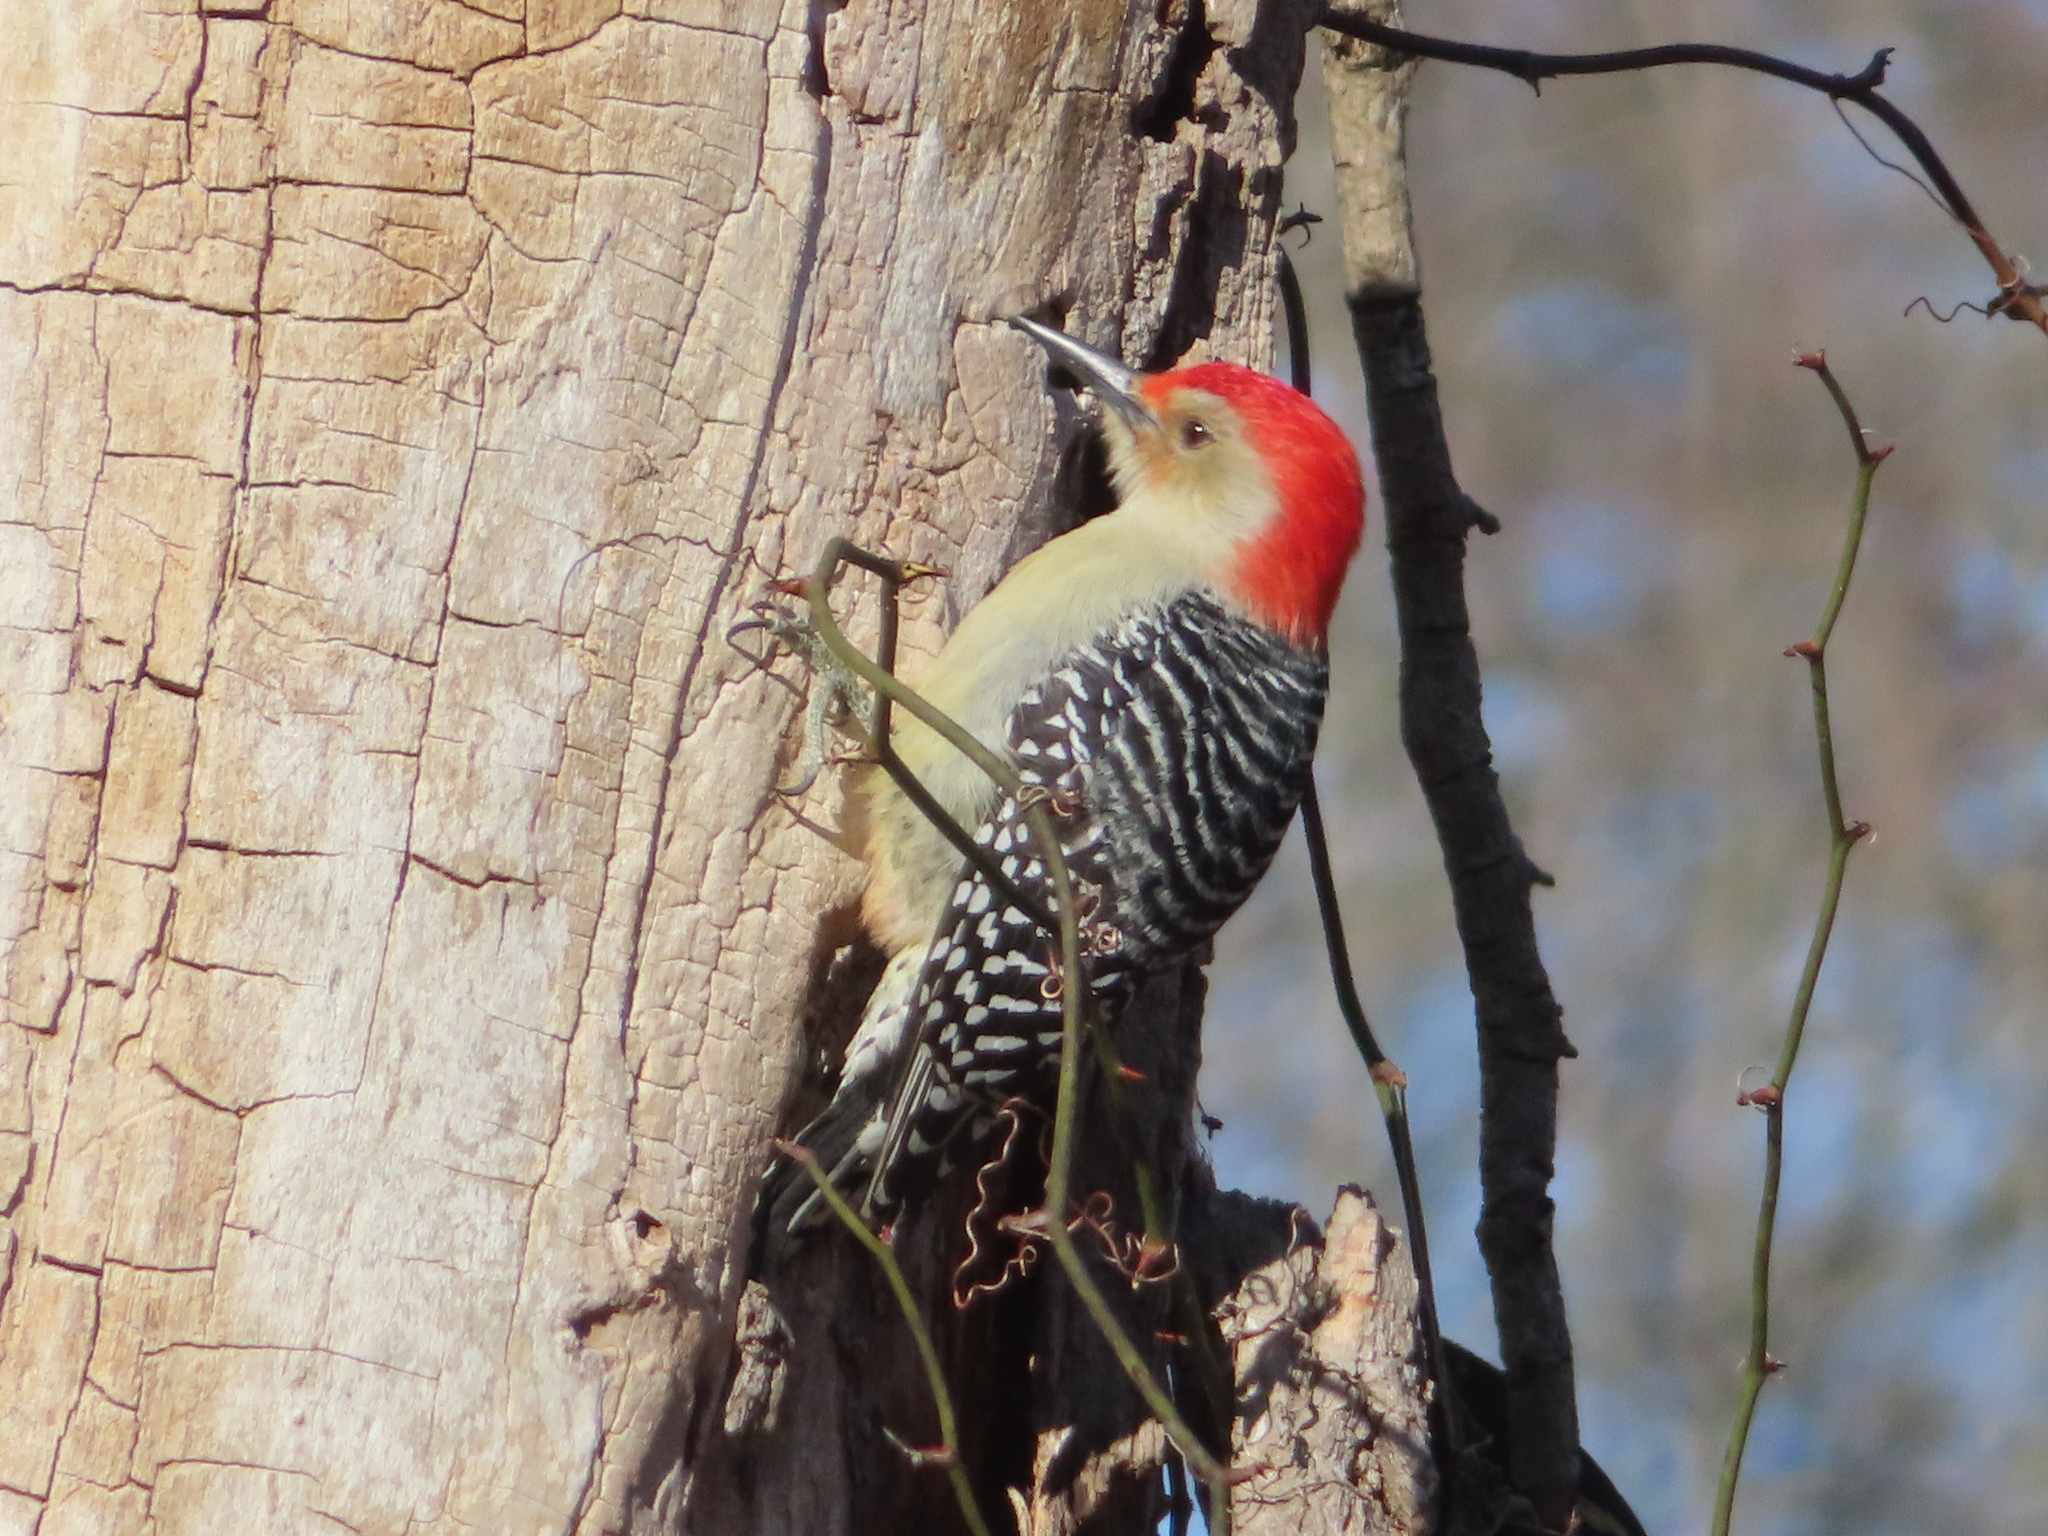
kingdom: Animalia
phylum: Chordata
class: Aves
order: Piciformes
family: Picidae
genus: Melanerpes
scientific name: Melanerpes carolinus
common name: Red-bellied woodpecker
